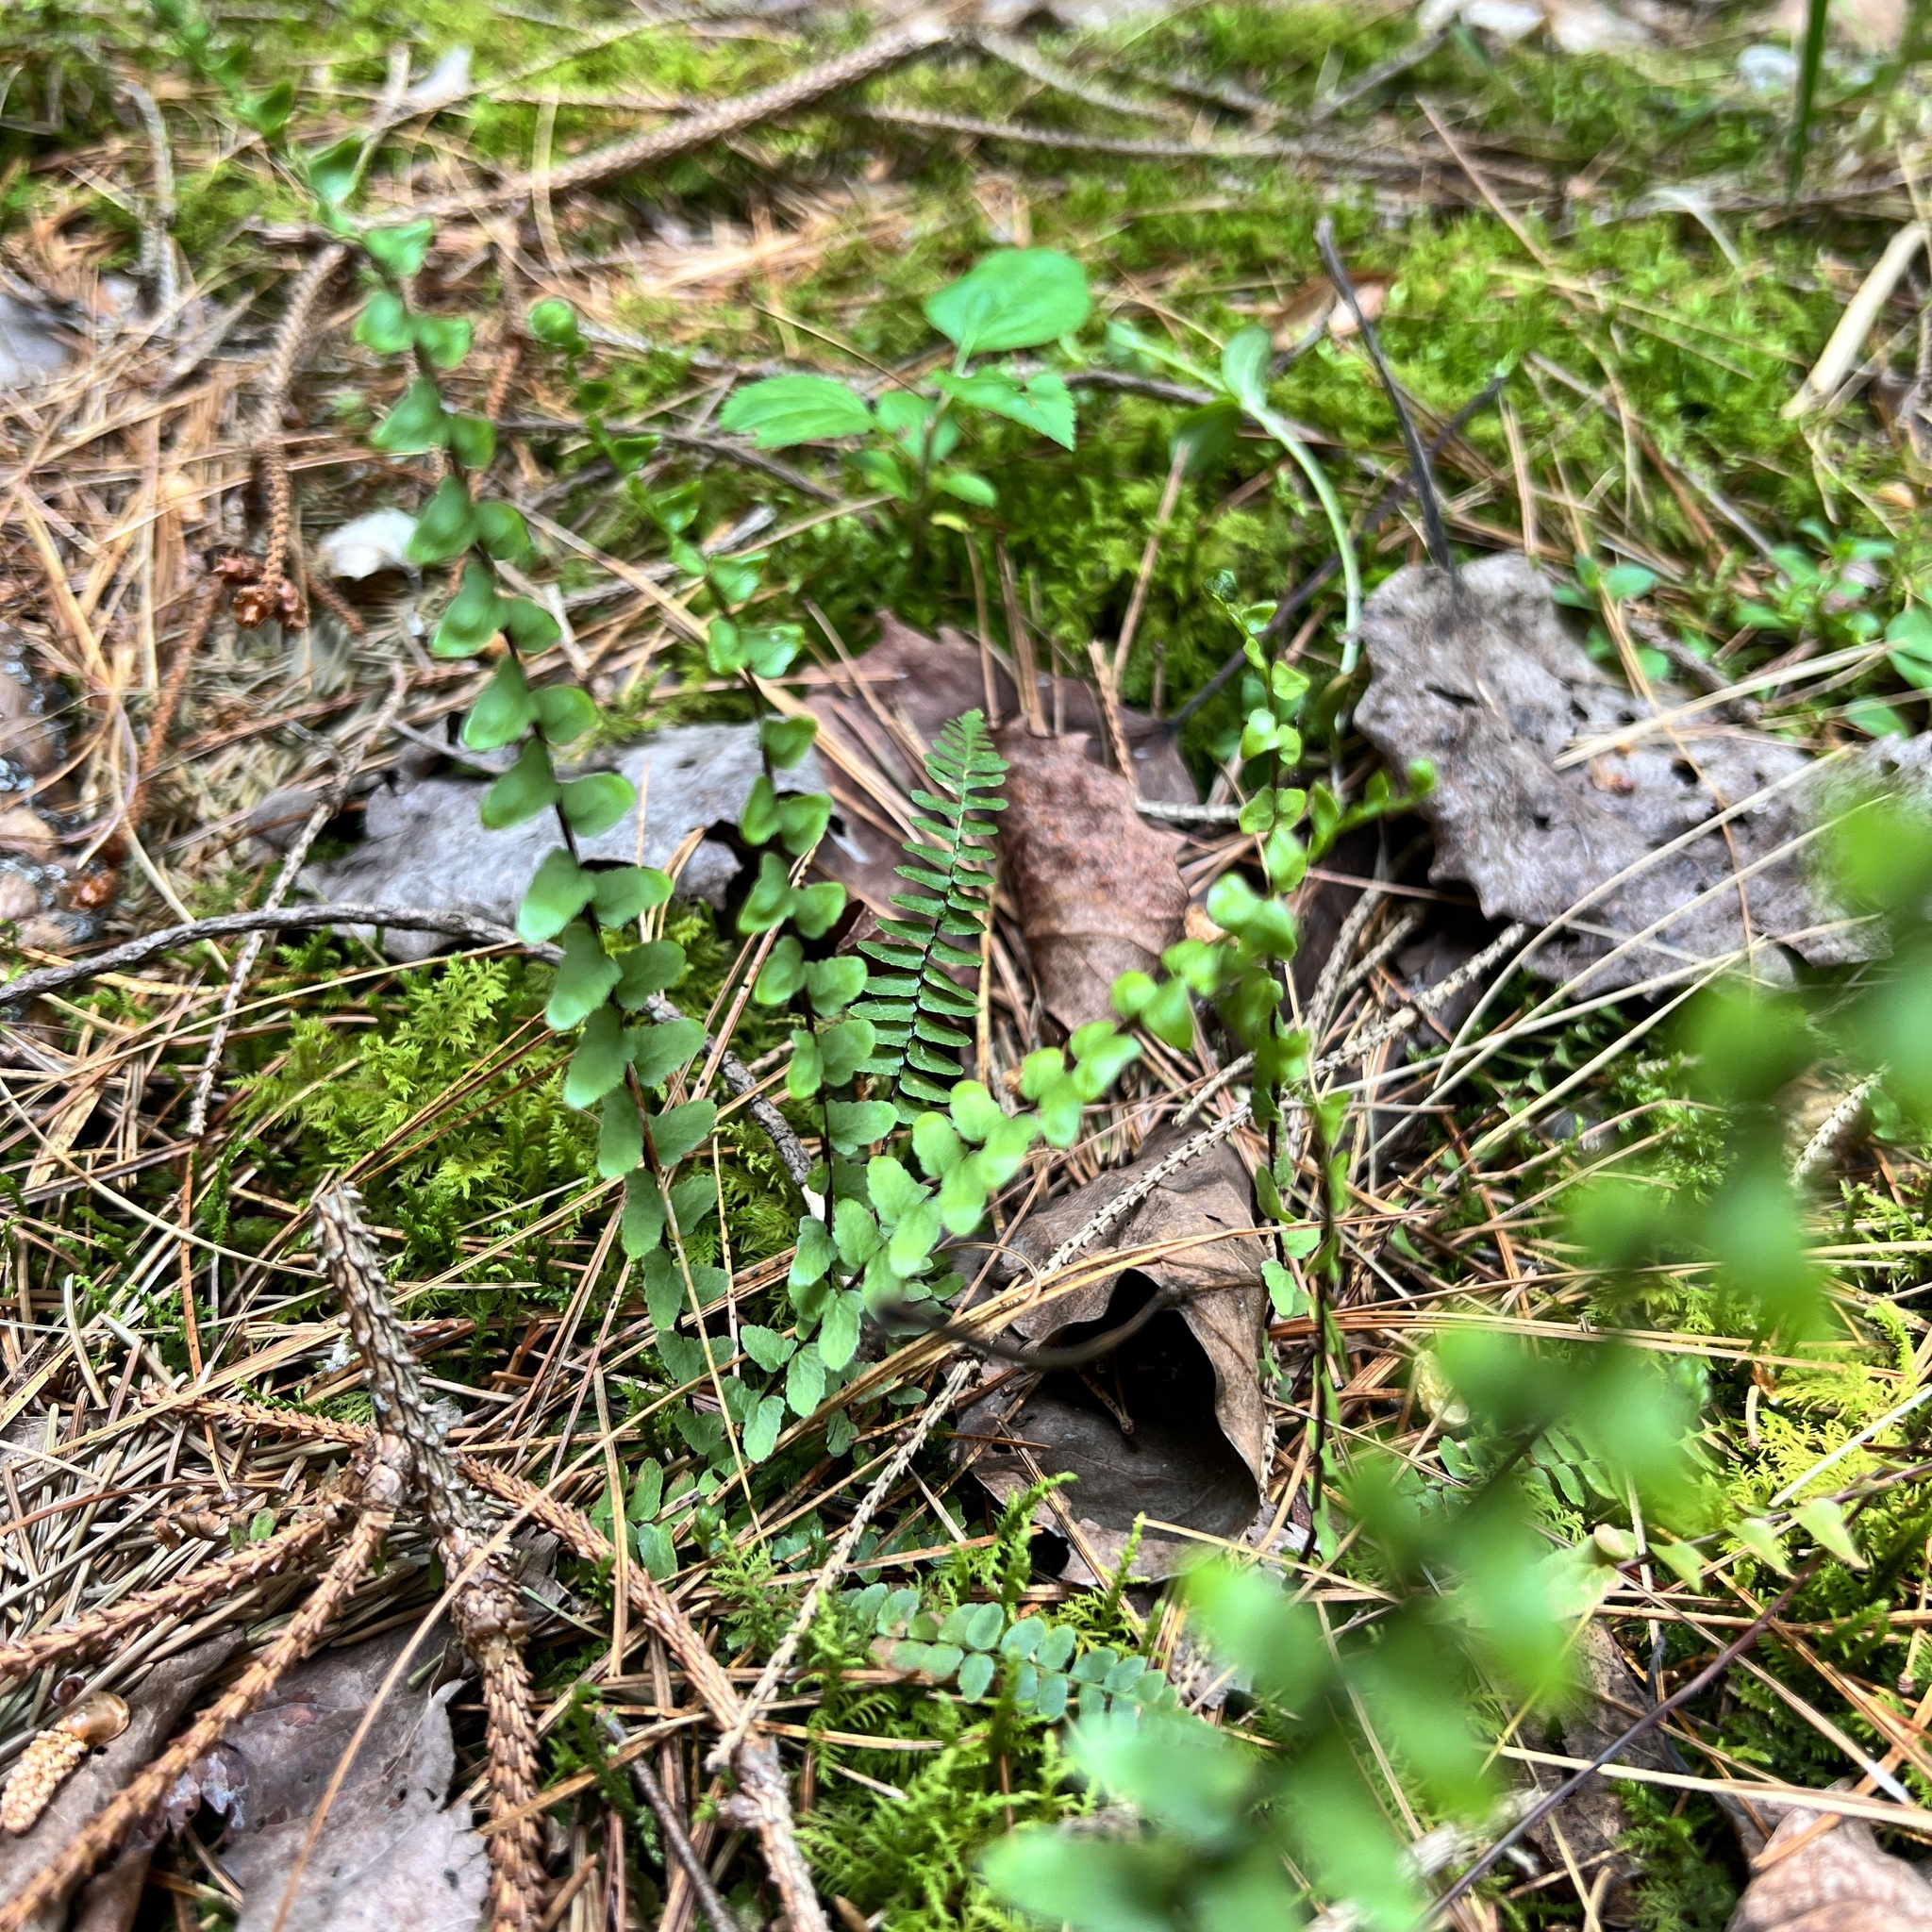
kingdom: Plantae
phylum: Tracheophyta
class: Polypodiopsida
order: Polypodiales
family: Aspleniaceae
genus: Asplenium
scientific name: Asplenium platyneuron
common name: Ebony spleenwort
